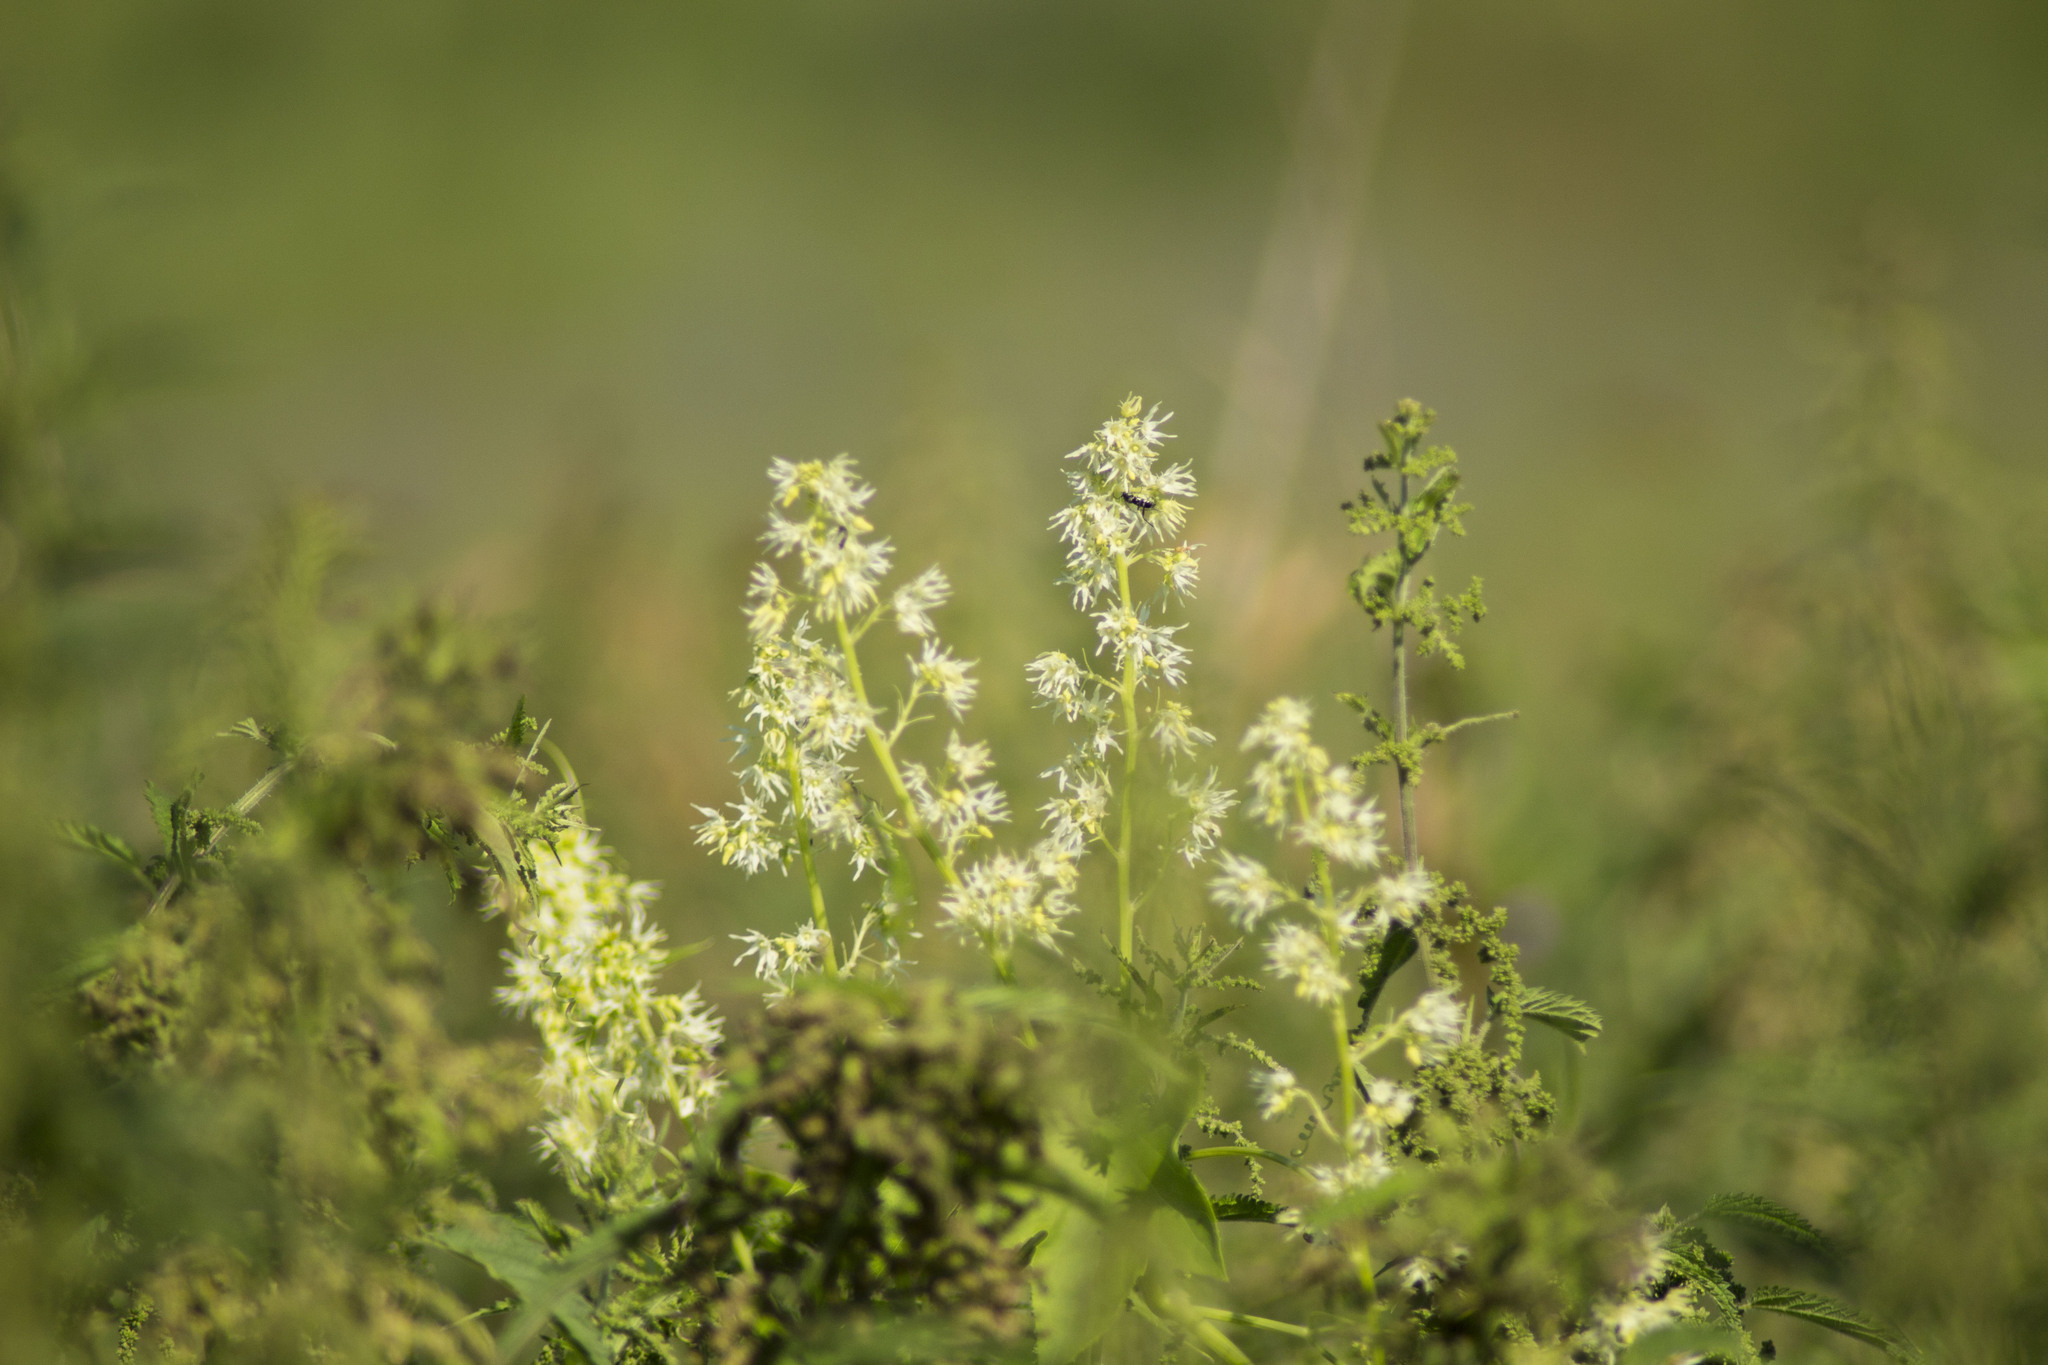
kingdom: Plantae
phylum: Tracheophyta
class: Magnoliopsida
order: Cucurbitales
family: Cucurbitaceae
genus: Echinocystis
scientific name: Echinocystis lobata
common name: Wild cucumber
